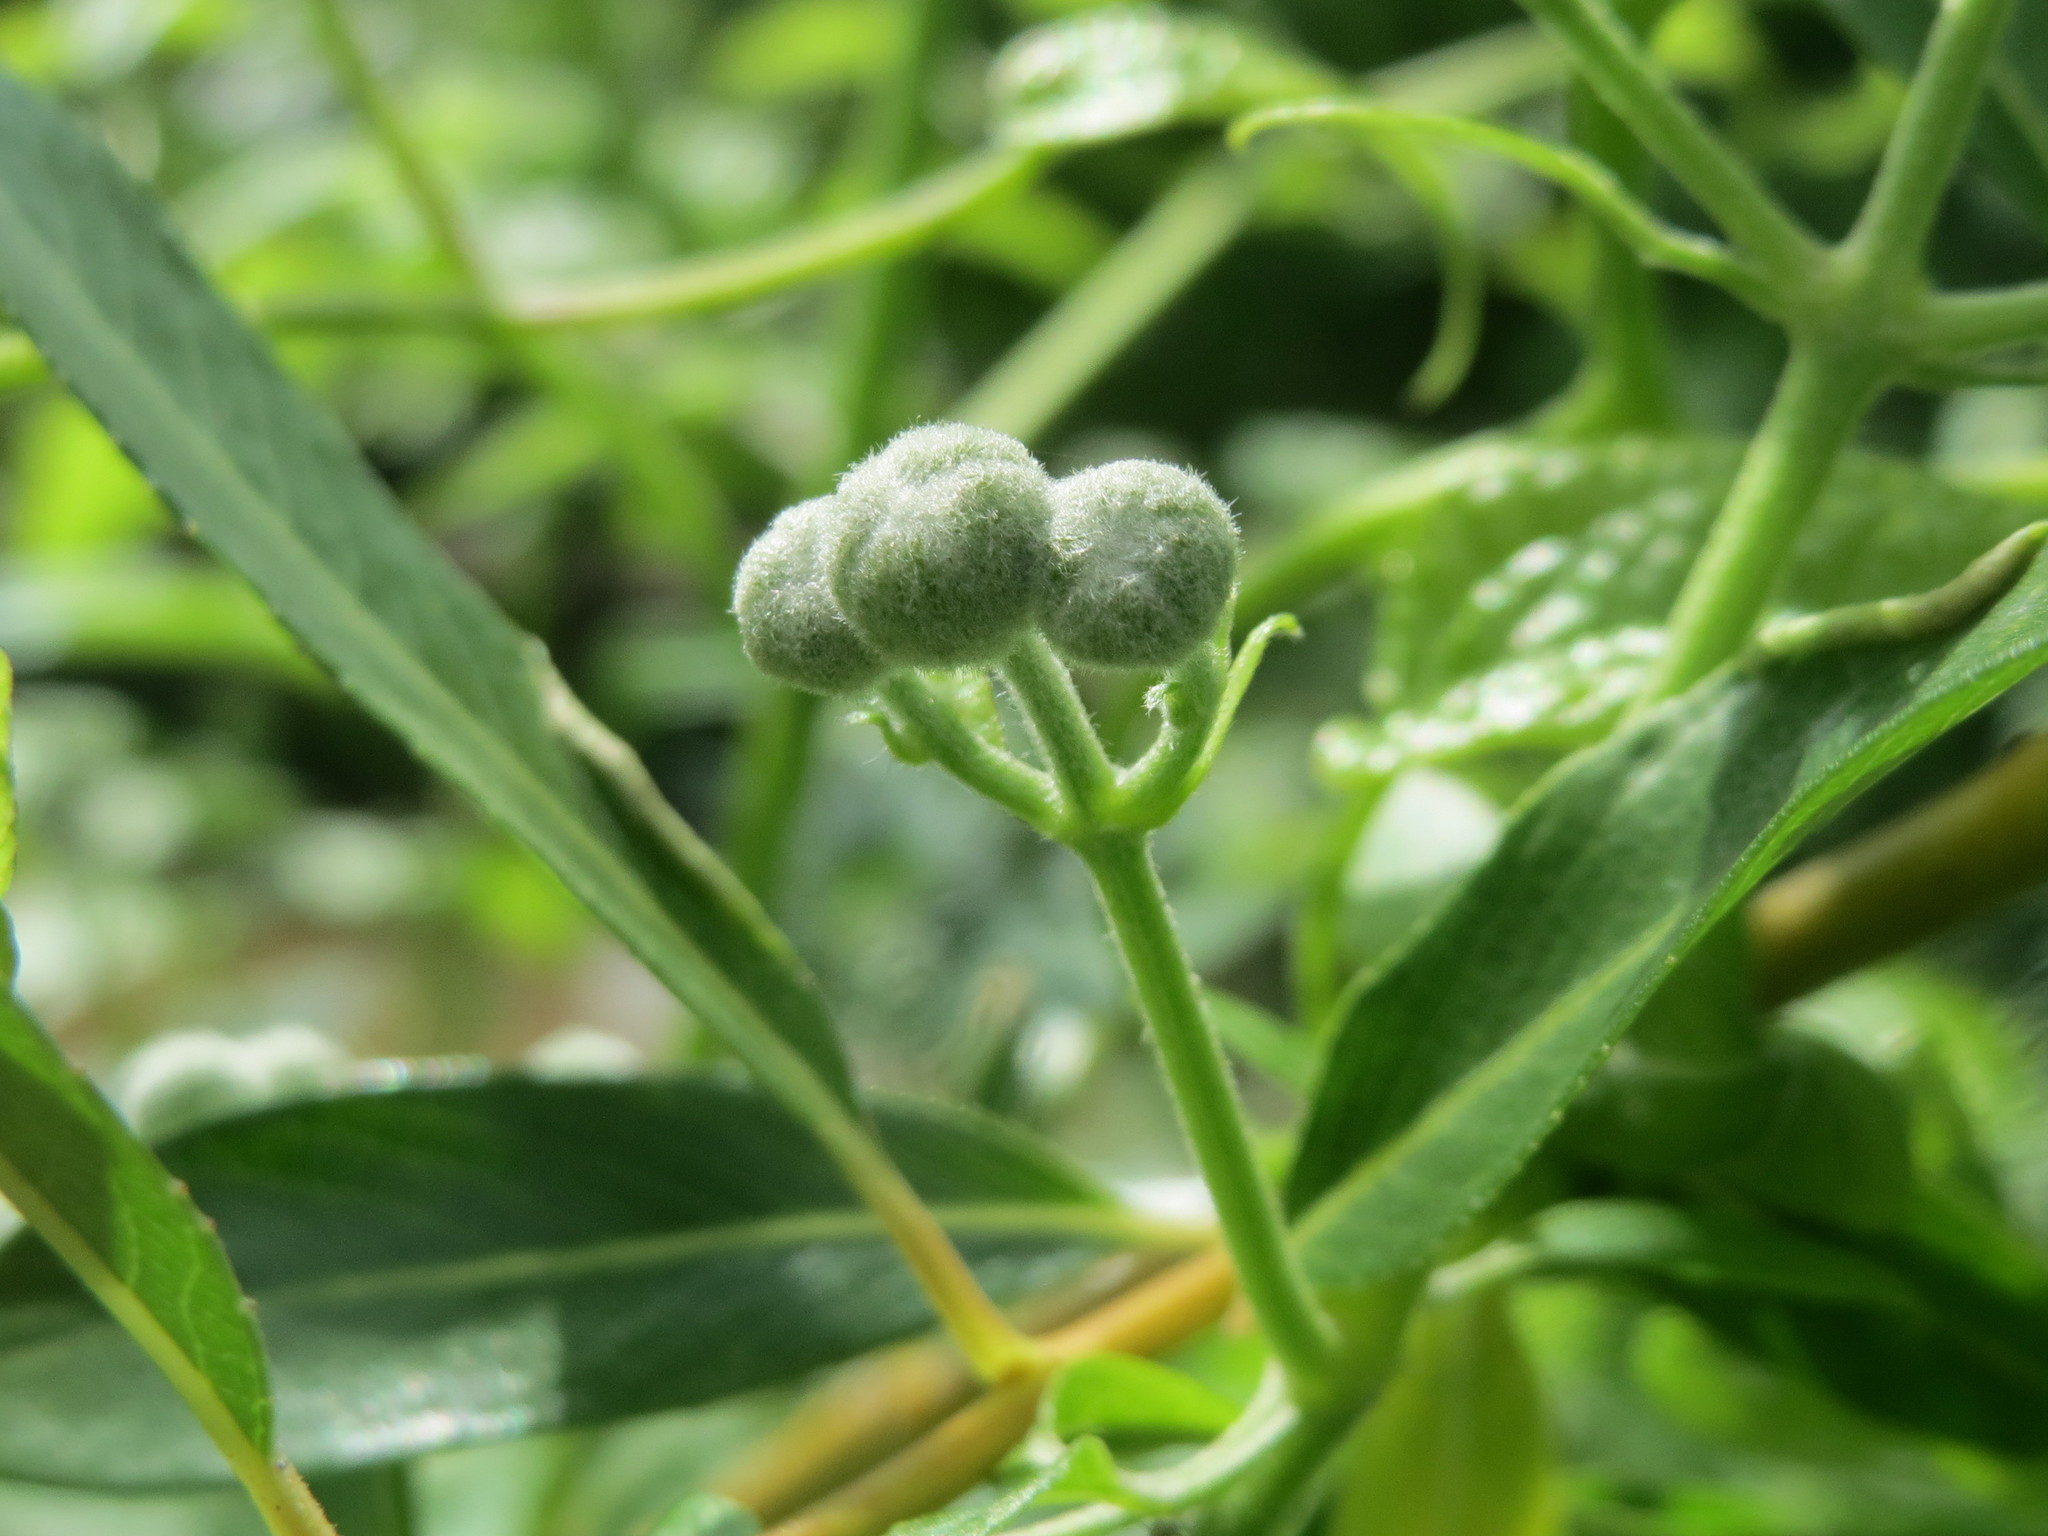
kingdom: Plantae
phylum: Tracheophyta
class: Magnoliopsida
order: Ranunculales
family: Ranunculaceae
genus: Clematis
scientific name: Clematis vitalba
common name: Evergreen clematis
